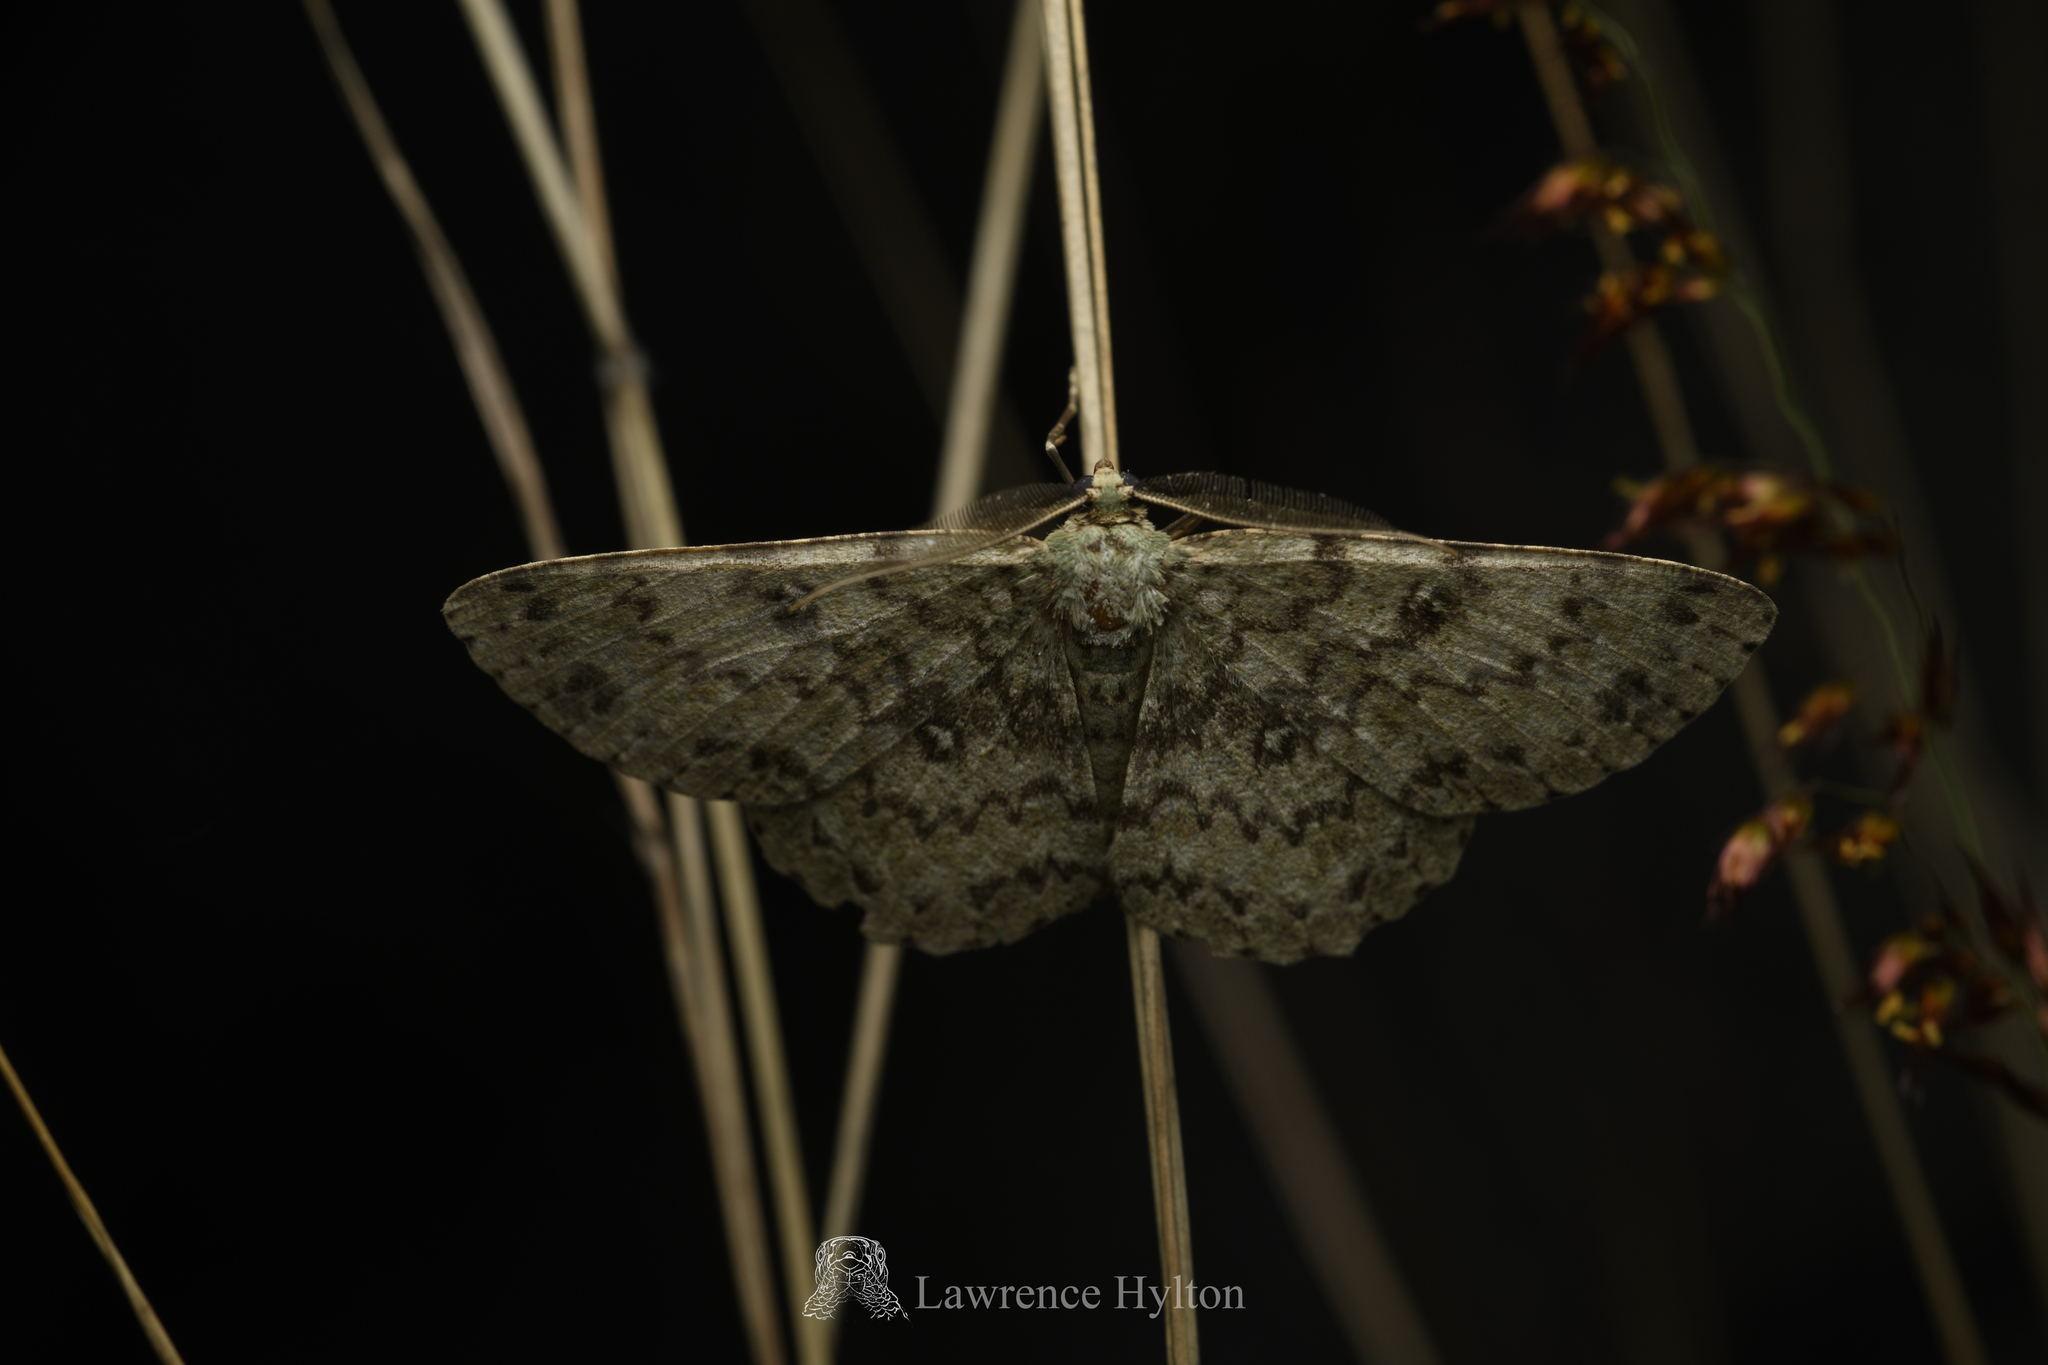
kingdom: Animalia
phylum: Arthropoda
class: Insecta
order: Lepidoptera
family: Geometridae
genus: Ophthalmitis
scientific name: Ophthalmitis herbidaria
